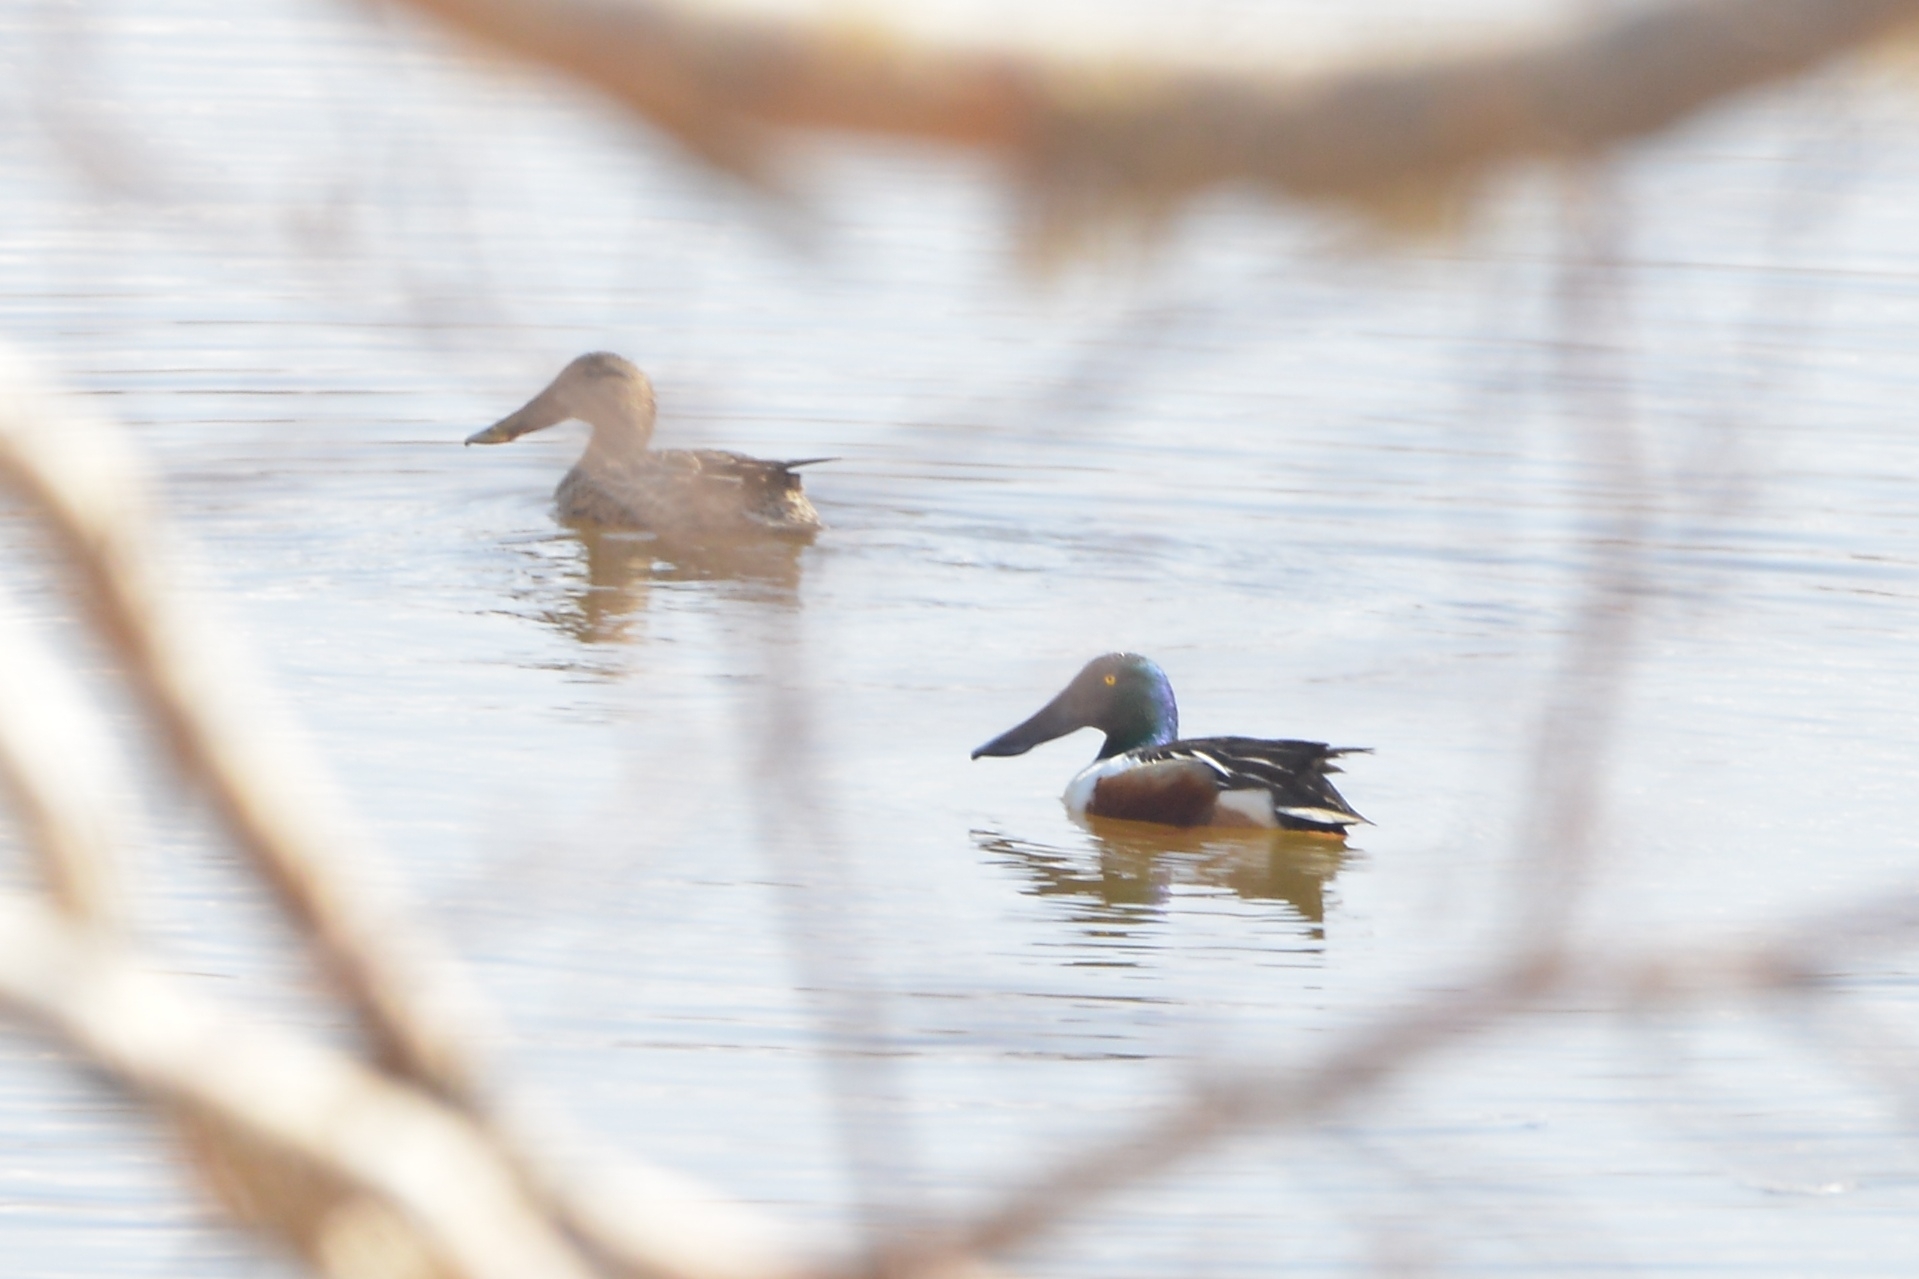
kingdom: Animalia
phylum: Chordata
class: Aves
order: Anseriformes
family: Anatidae
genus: Spatula
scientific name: Spatula clypeata
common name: Northern shoveler
